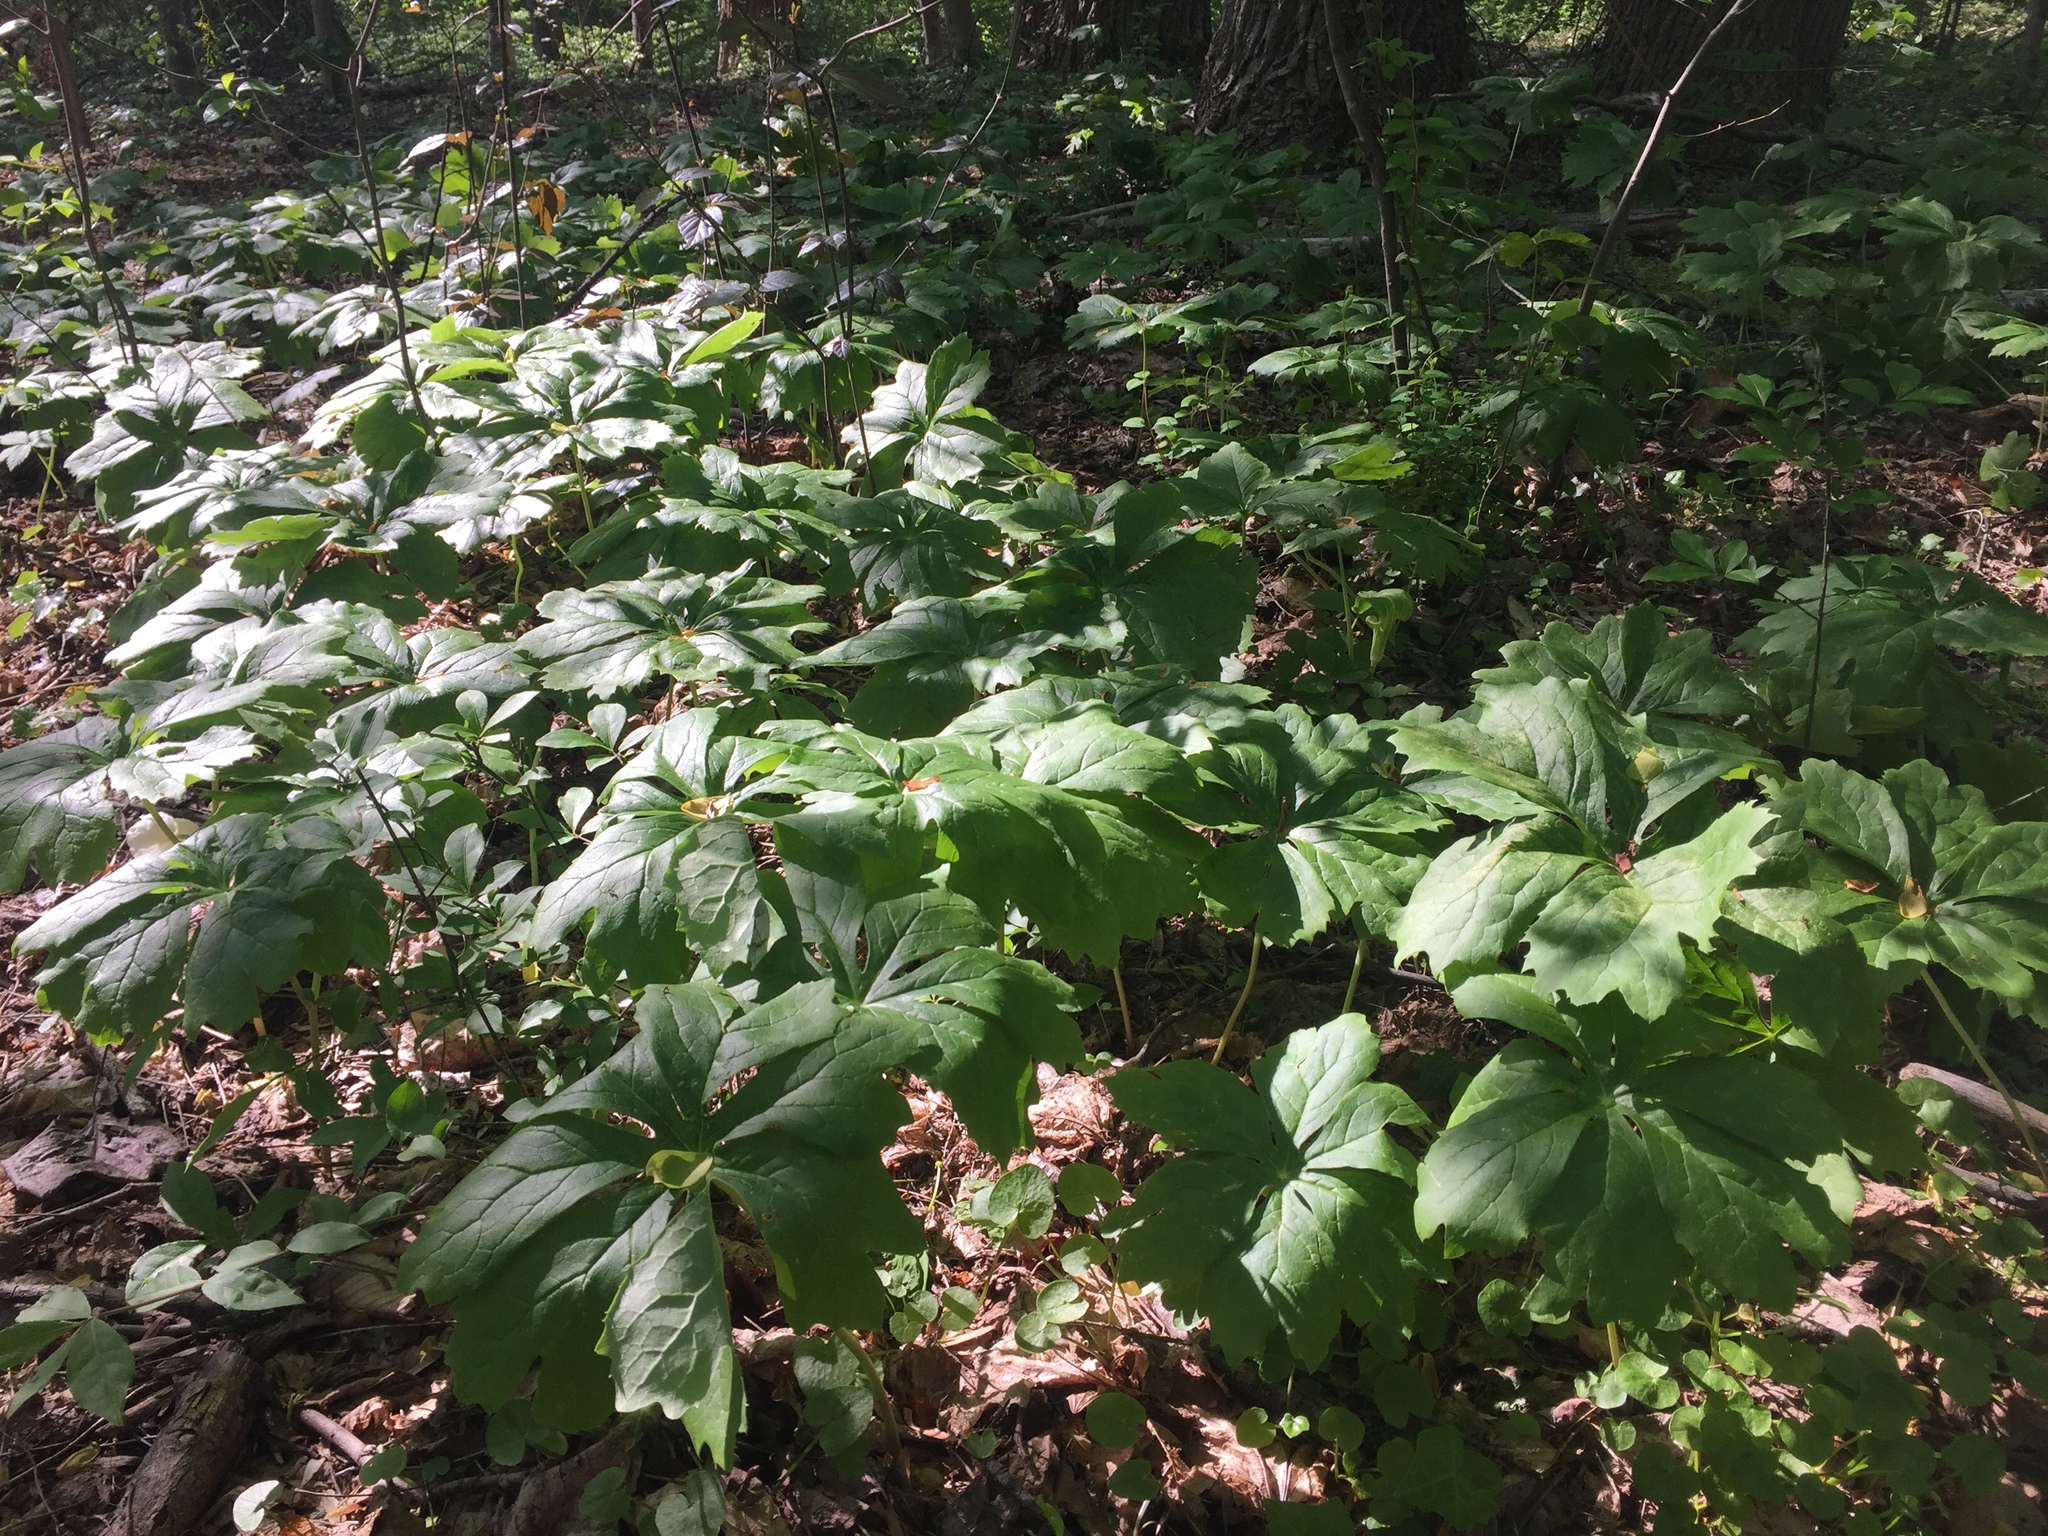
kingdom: Plantae
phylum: Tracheophyta
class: Magnoliopsida
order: Ranunculales
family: Berberidaceae
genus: Podophyllum
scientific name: Podophyllum peltatum
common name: Wild mandrake
